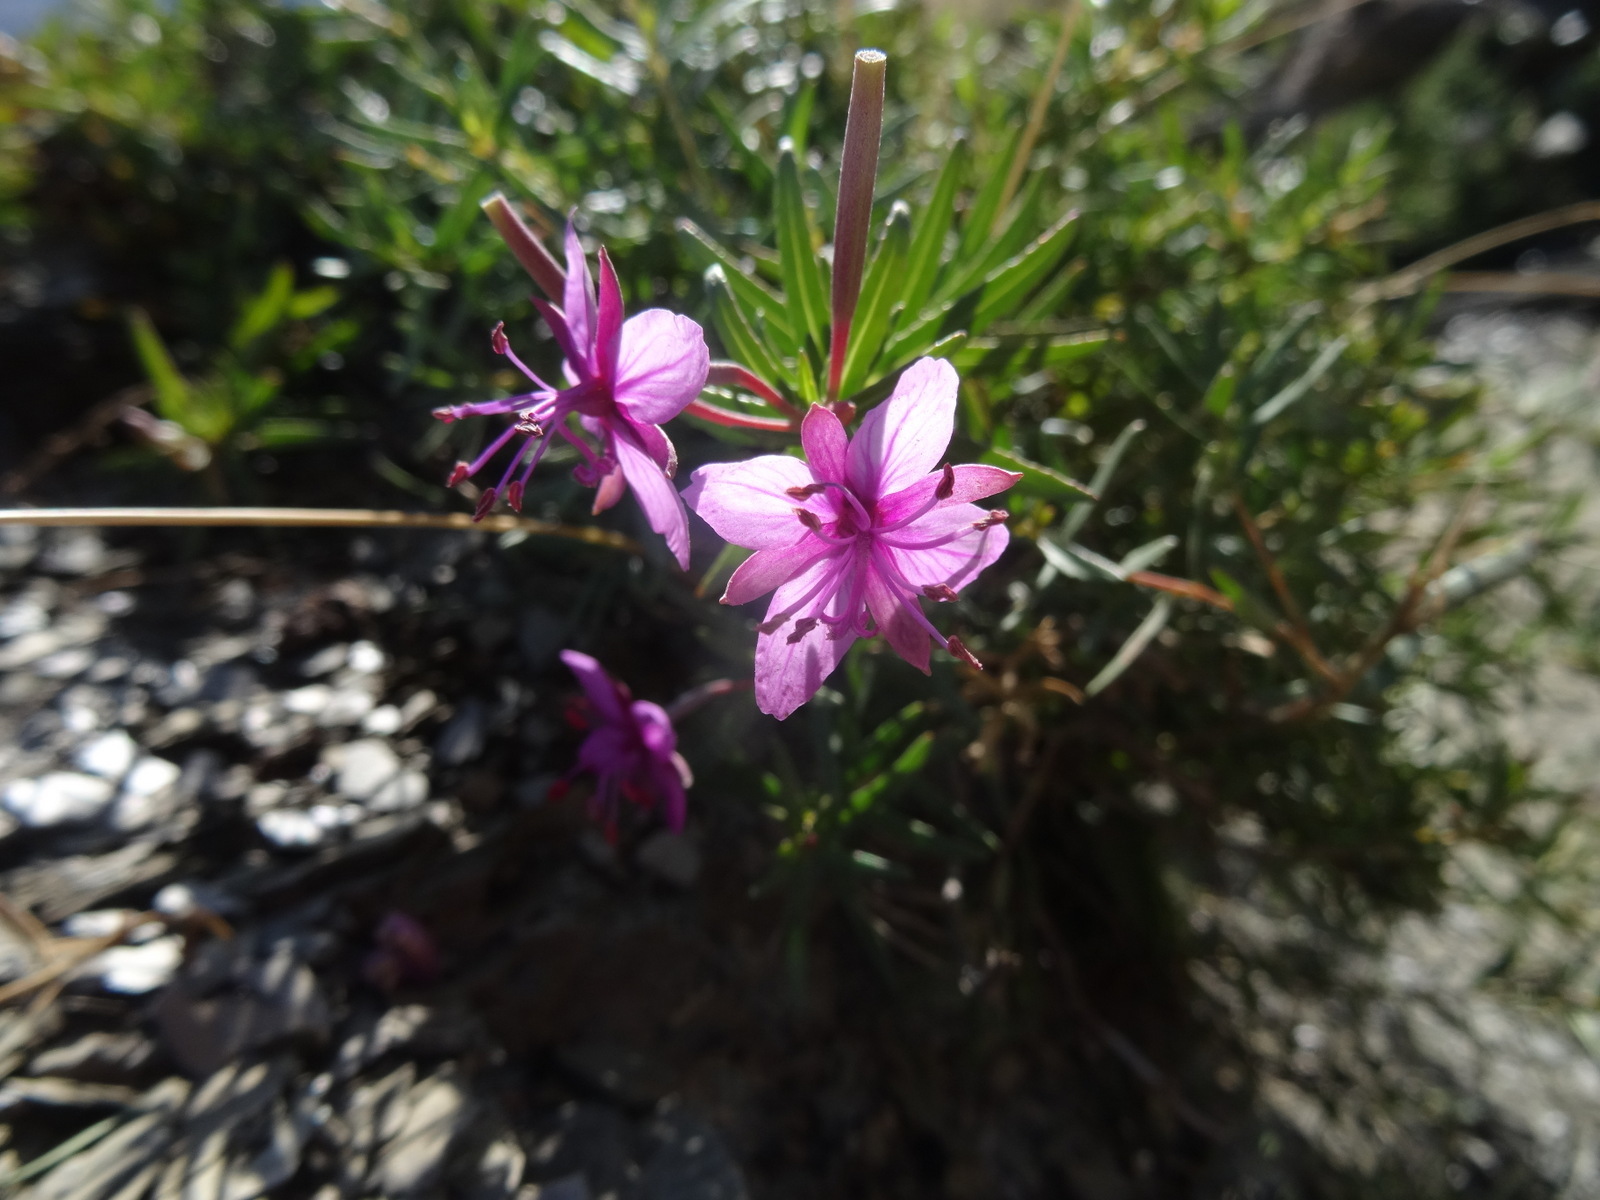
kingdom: Plantae
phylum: Tracheophyta
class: Magnoliopsida
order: Myrtales
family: Onagraceae
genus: Chamaenerion
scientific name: Chamaenerion dodonaei
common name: Rosemary-leaved willowherb
